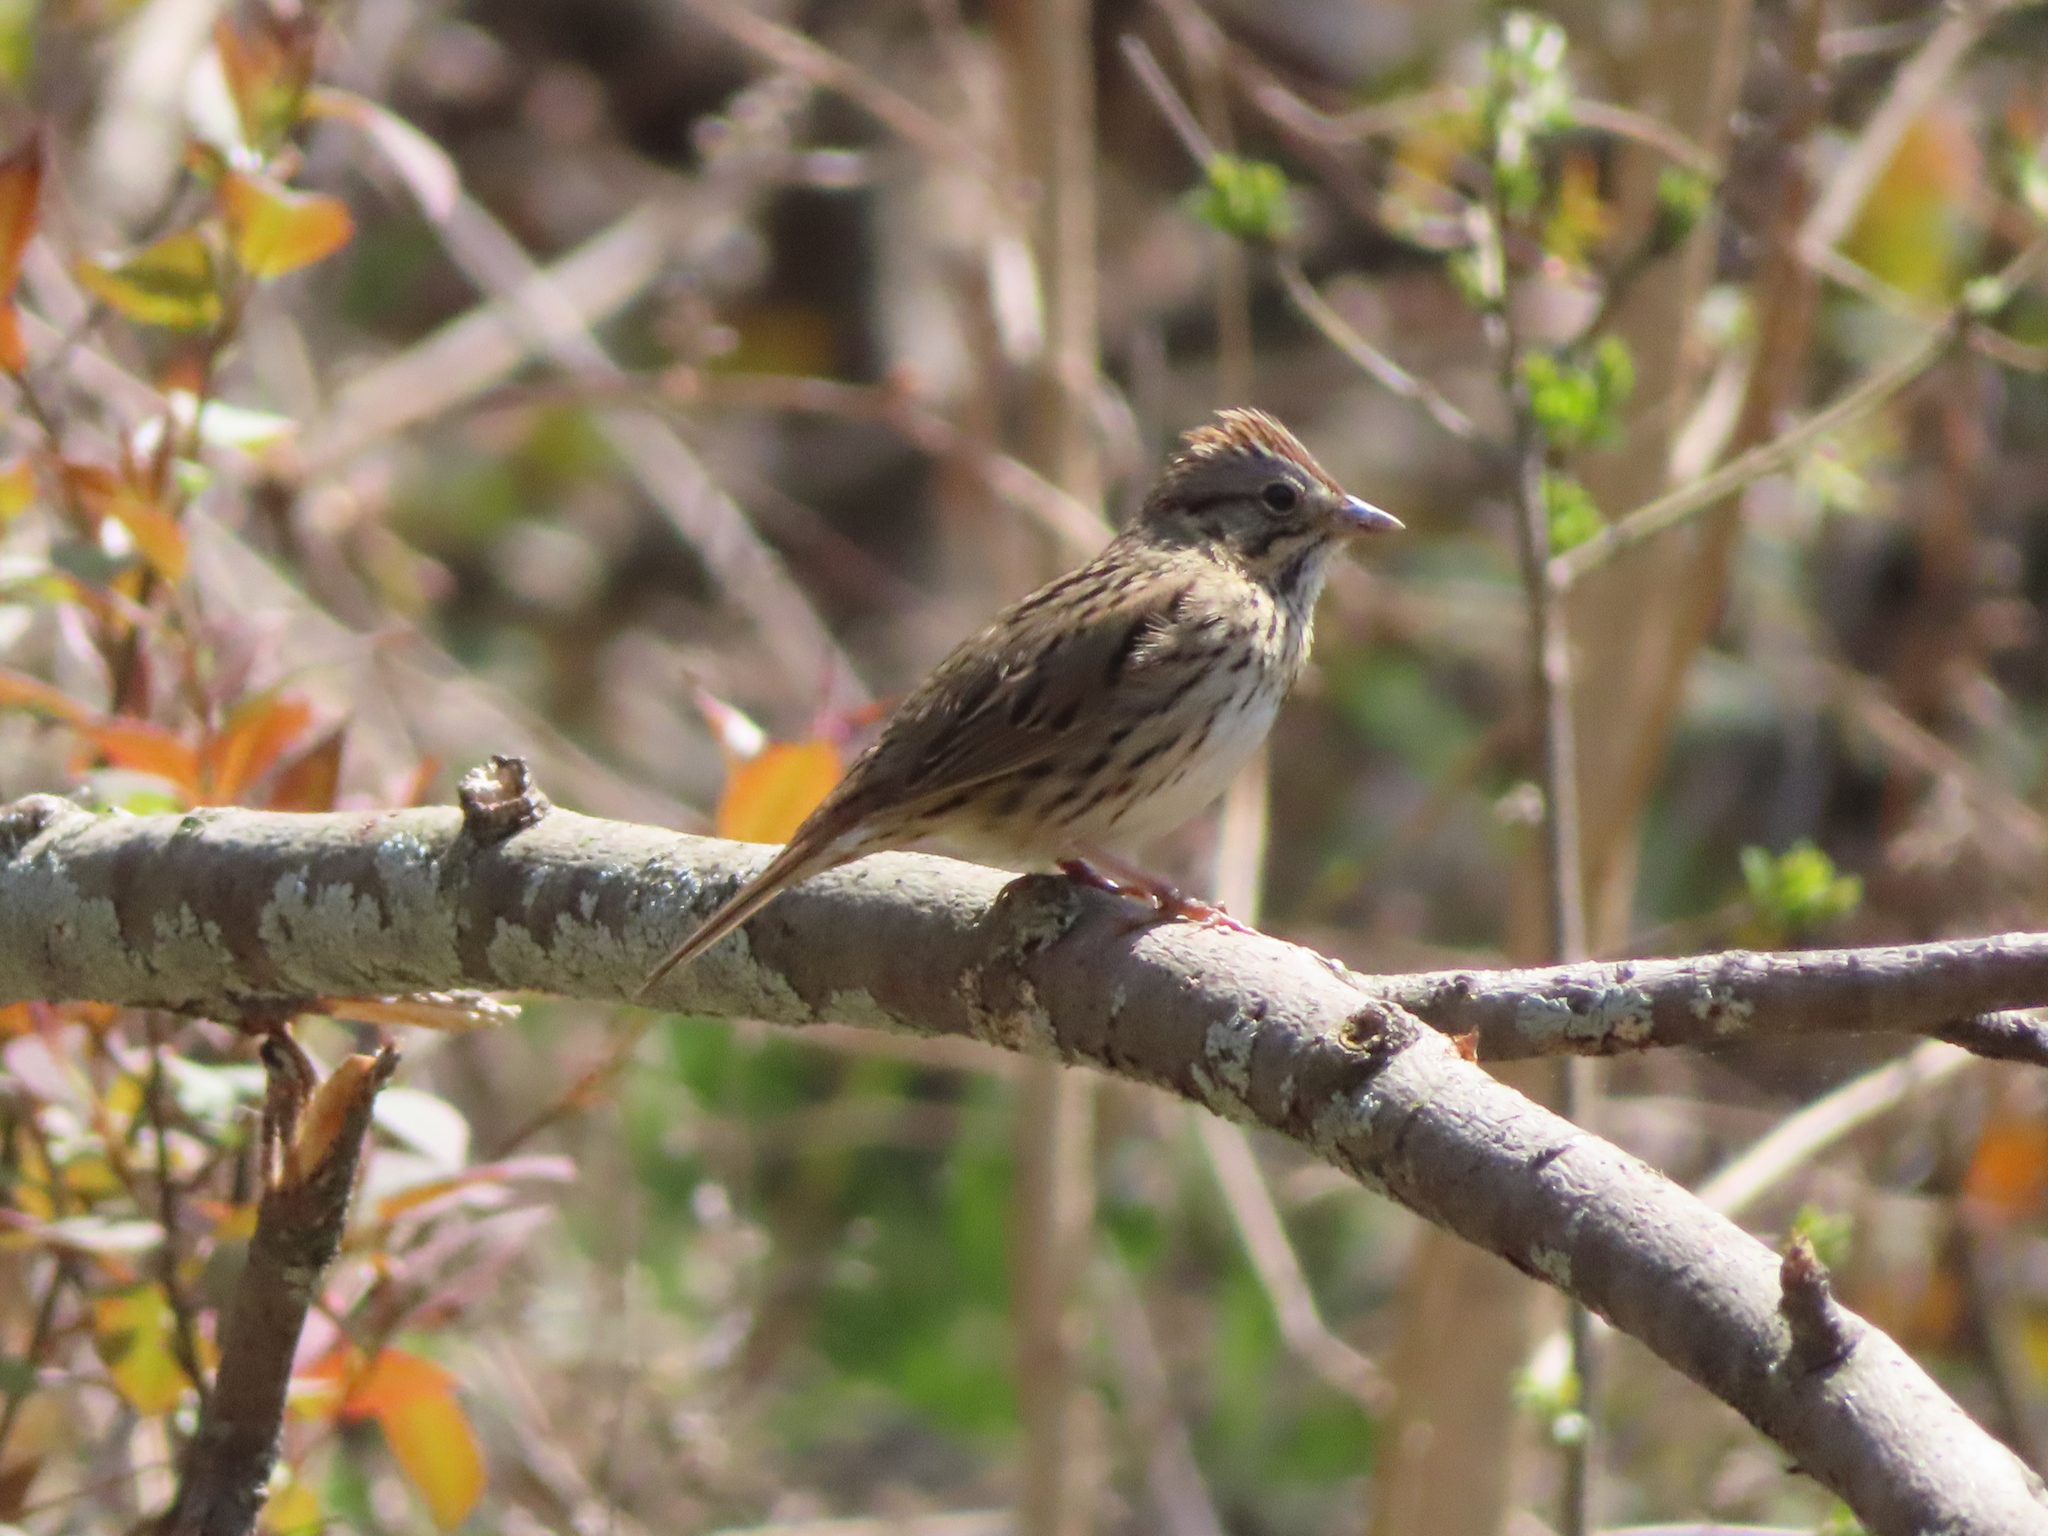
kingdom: Animalia
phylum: Chordata
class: Aves
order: Passeriformes
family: Passerellidae
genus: Melospiza
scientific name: Melospiza lincolnii
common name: Lincoln's sparrow
